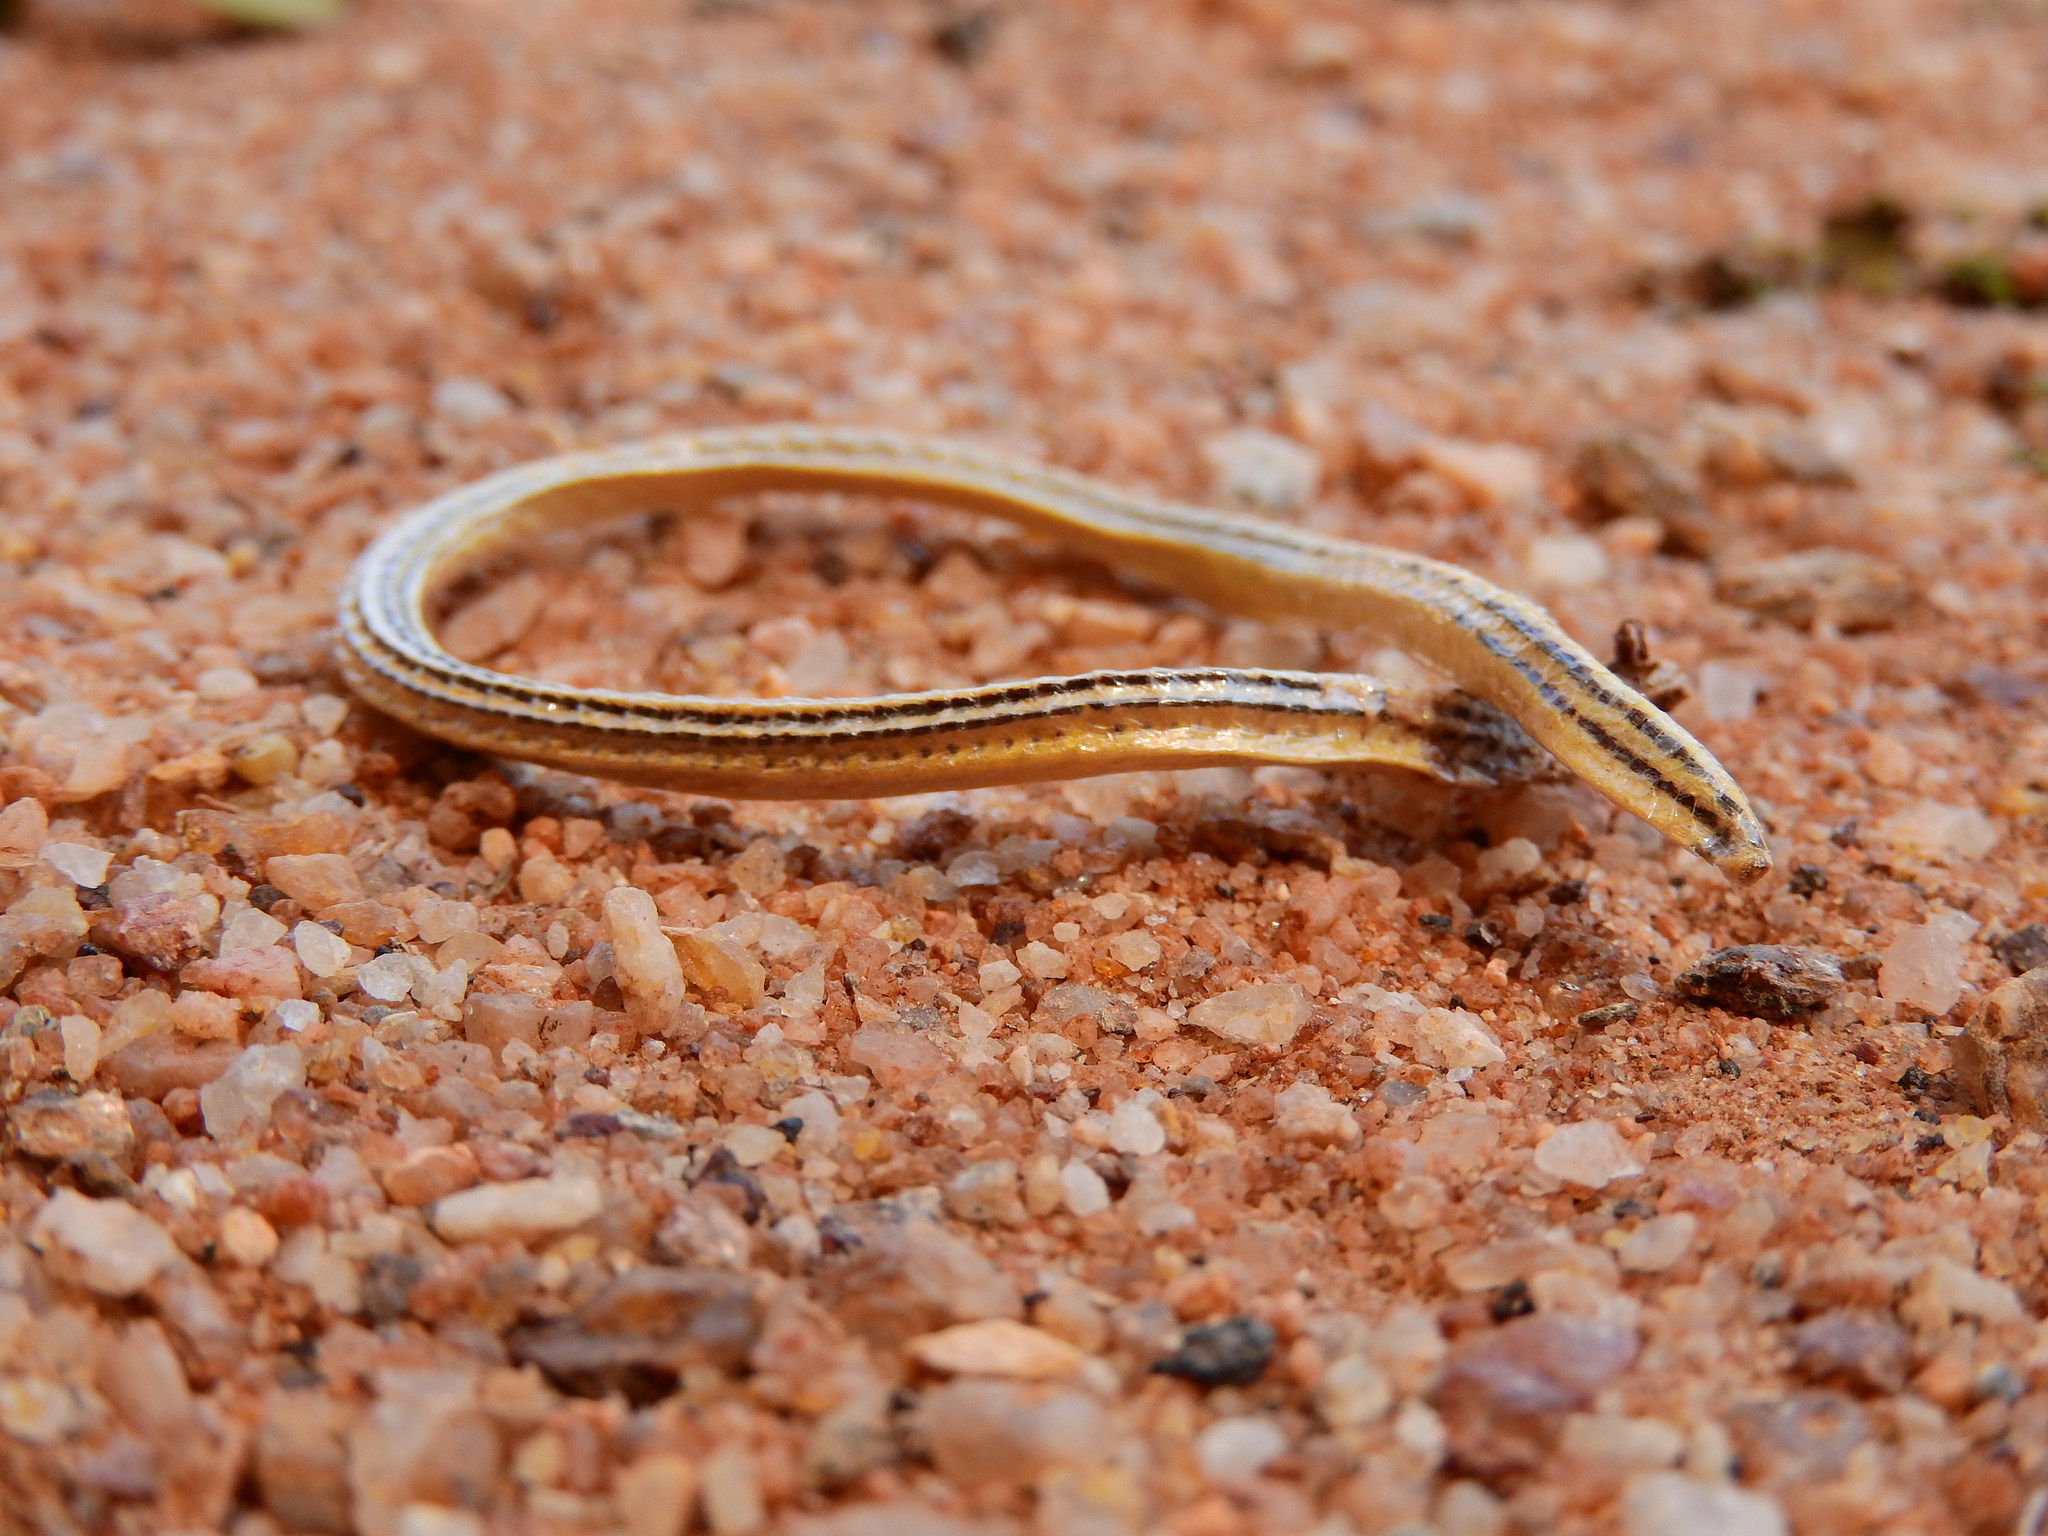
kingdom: Animalia
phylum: Chordata
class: Squamata
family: Scincidae
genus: Acontias
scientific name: Acontias lineatus
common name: Lined lance skink
